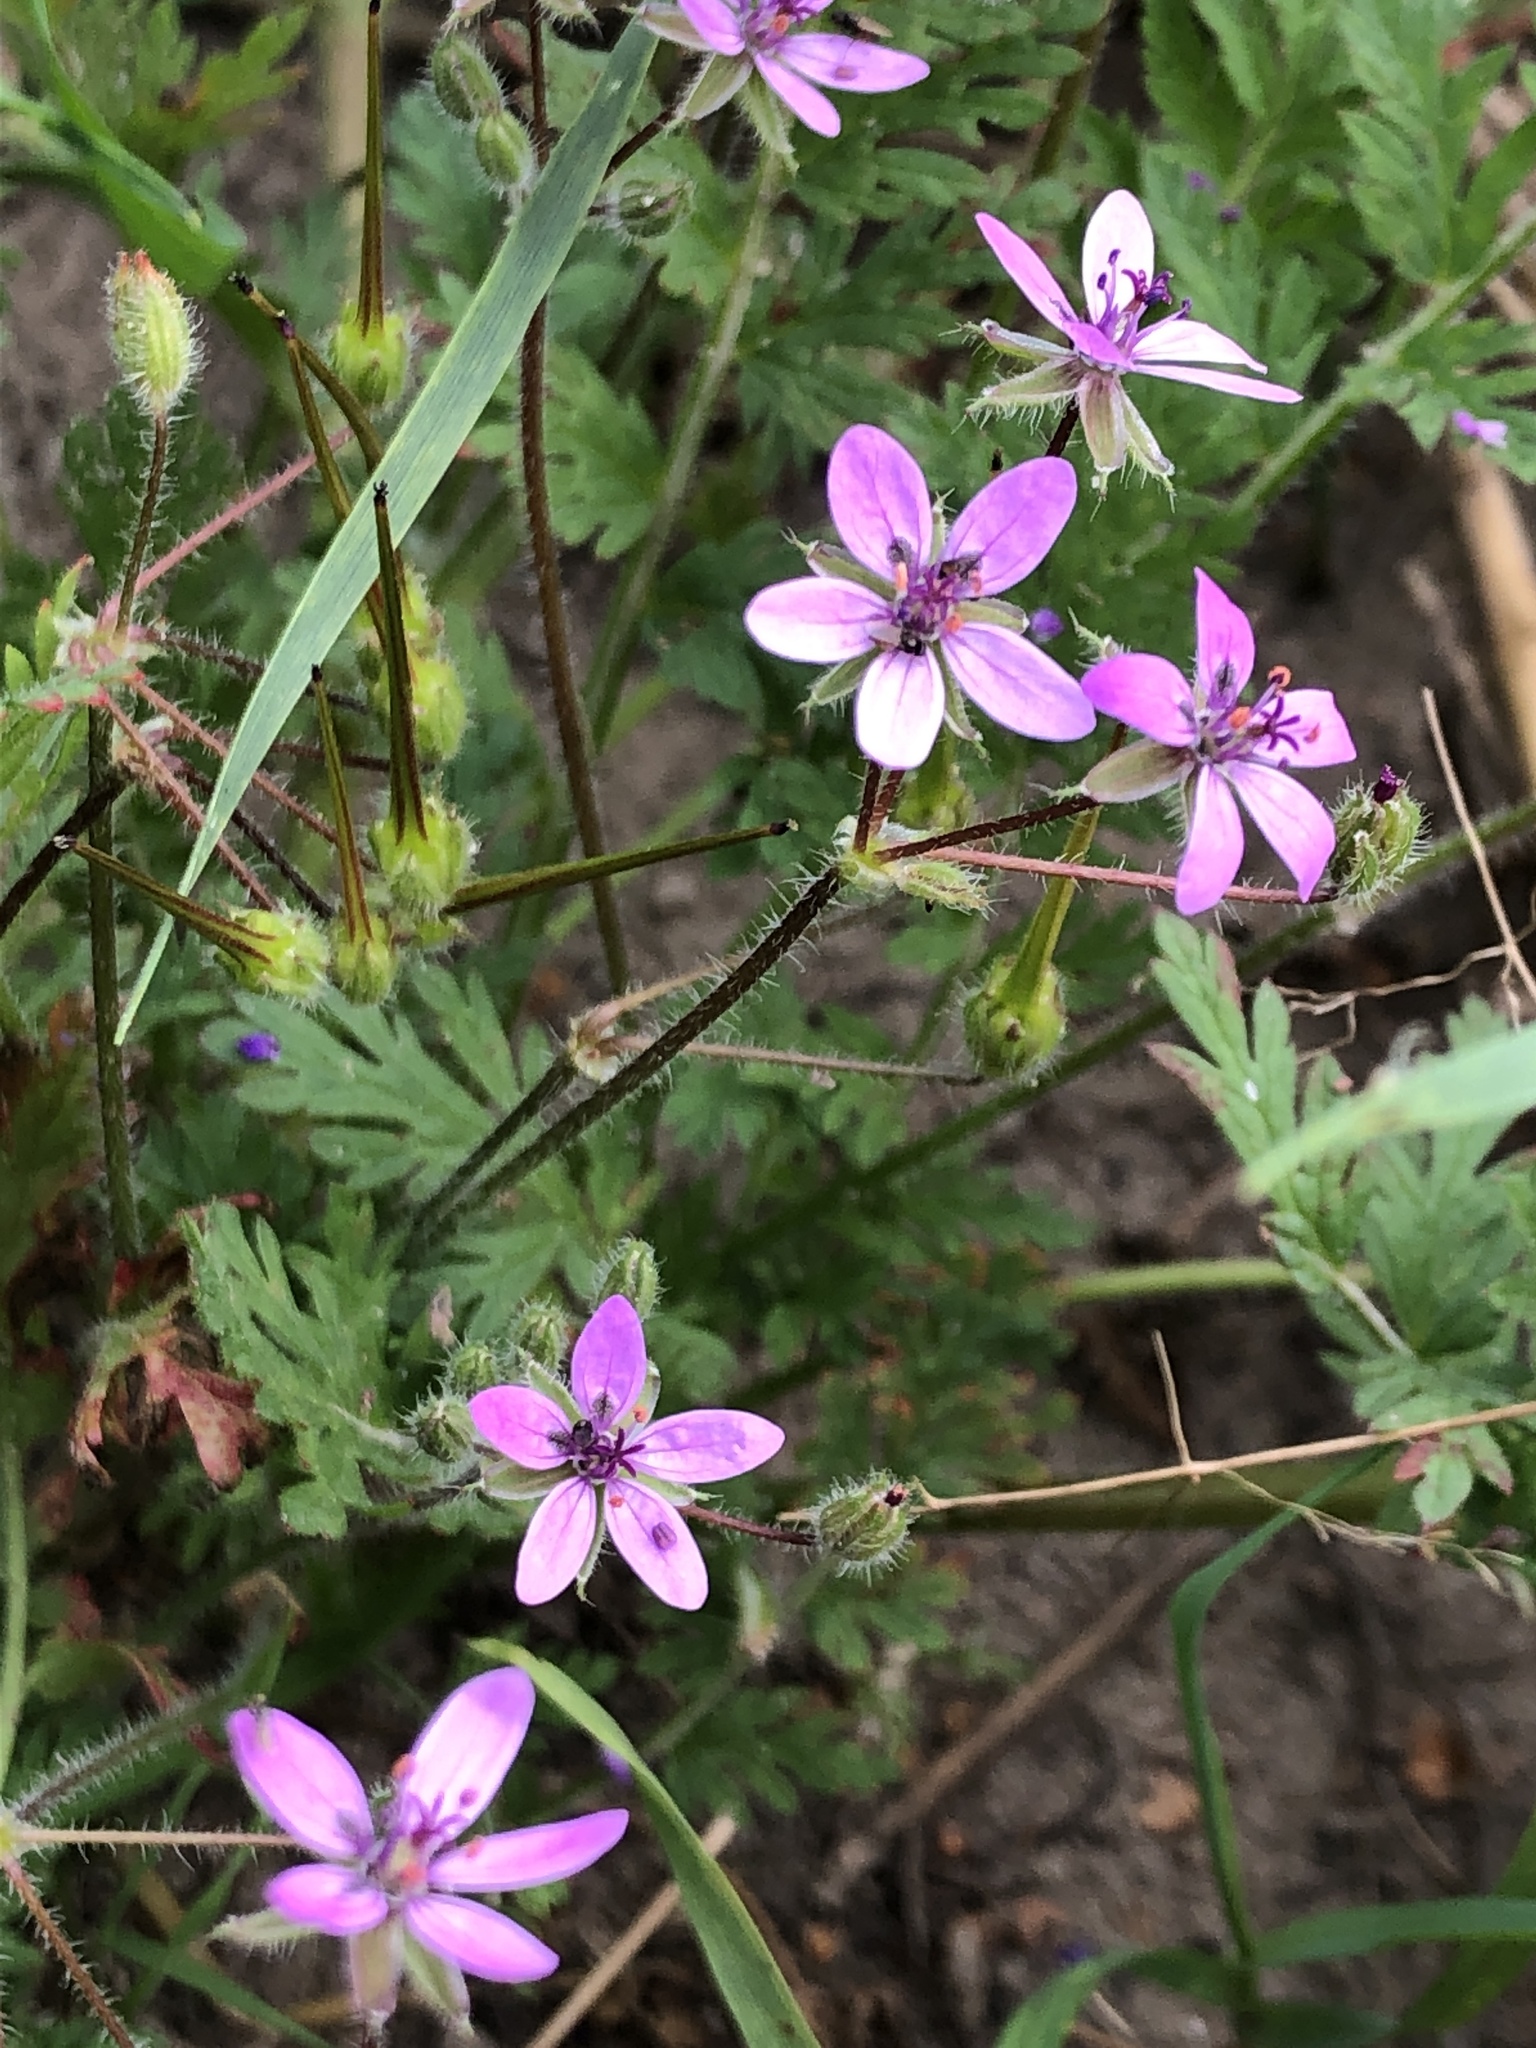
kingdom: Plantae
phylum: Tracheophyta
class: Magnoliopsida
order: Geraniales
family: Geraniaceae
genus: Erodium
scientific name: Erodium cicutarium
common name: Common stork's-bill
